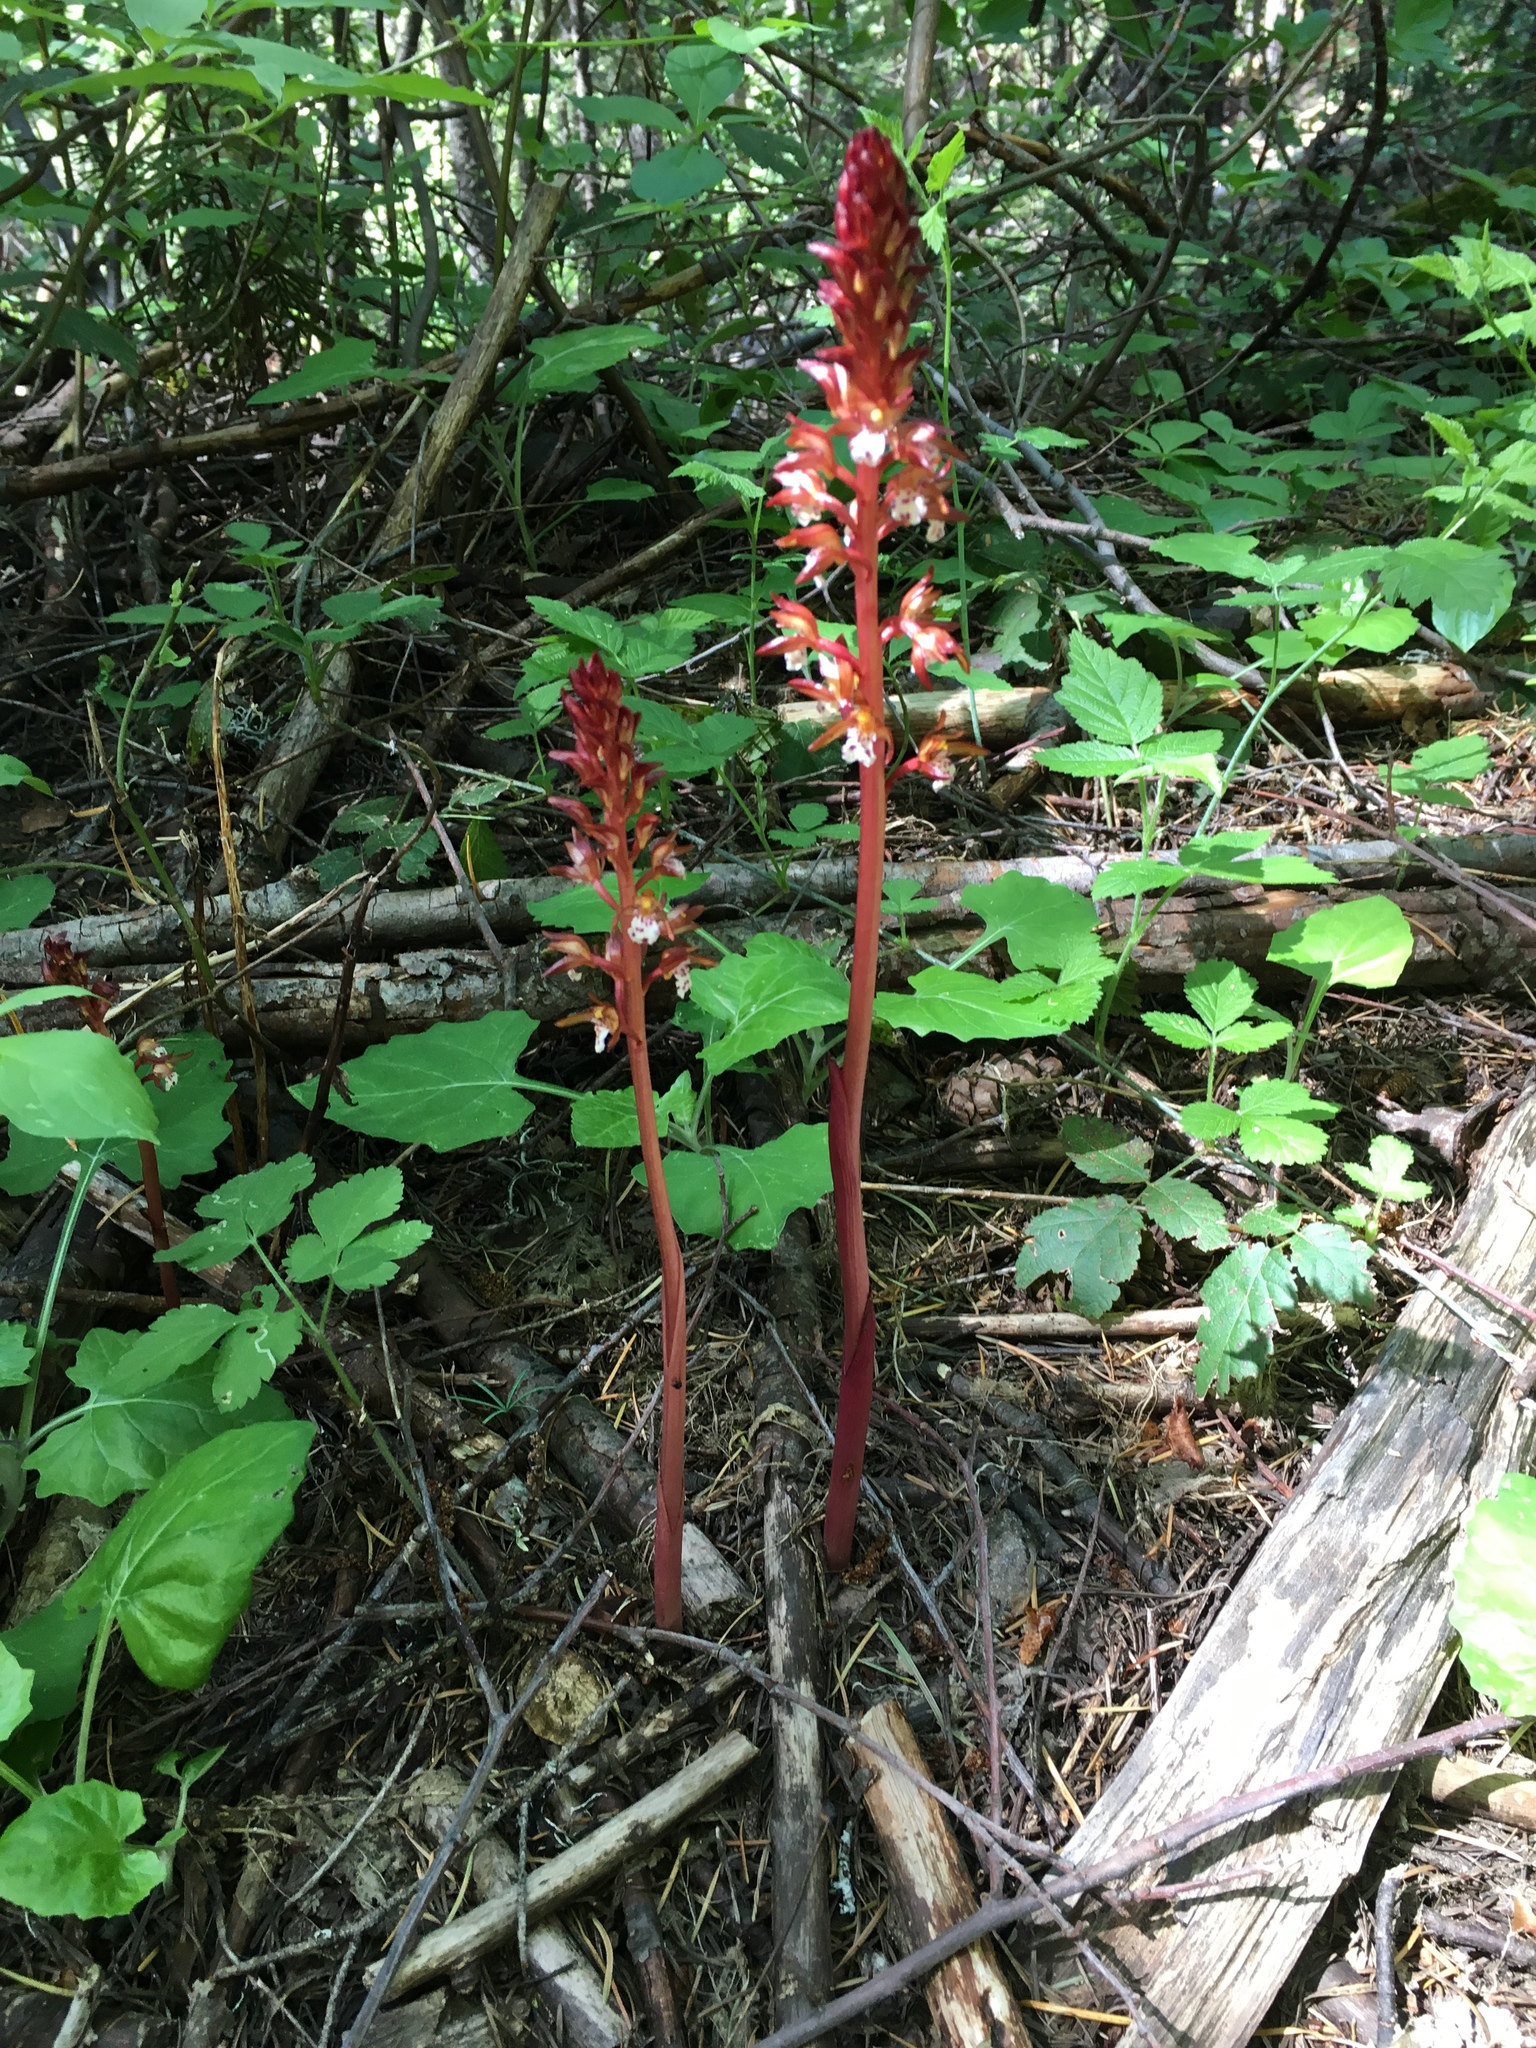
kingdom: Plantae
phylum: Tracheophyta
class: Liliopsida
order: Asparagales
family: Orchidaceae
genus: Corallorhiza
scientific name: Corallorhiza maculata
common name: Spotted coralroot
